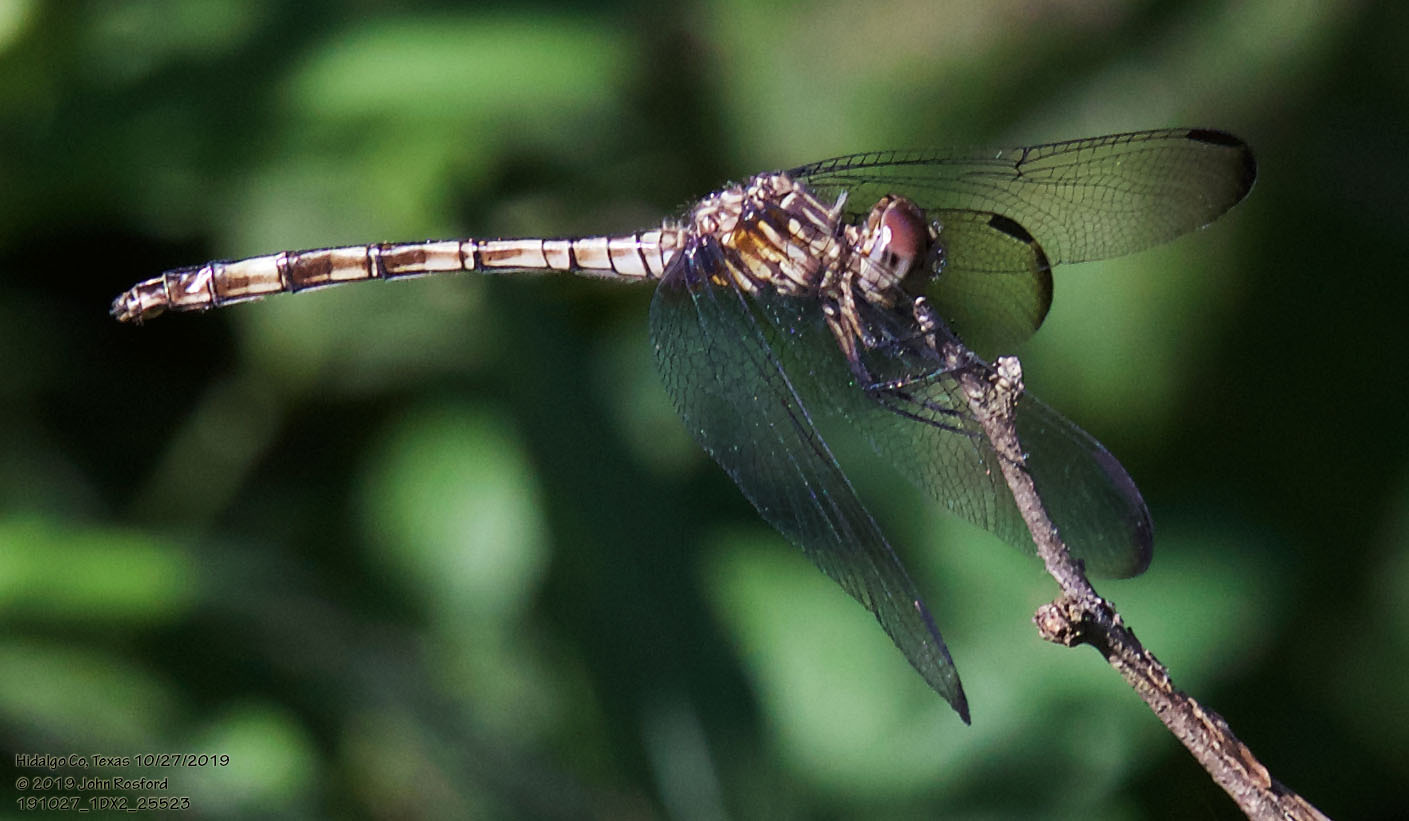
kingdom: Animalia
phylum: Arthropoda
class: Insecta
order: Odonata
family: Libellulidae
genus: Dythemis
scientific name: Dythemis nigrescens
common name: Black setwing
